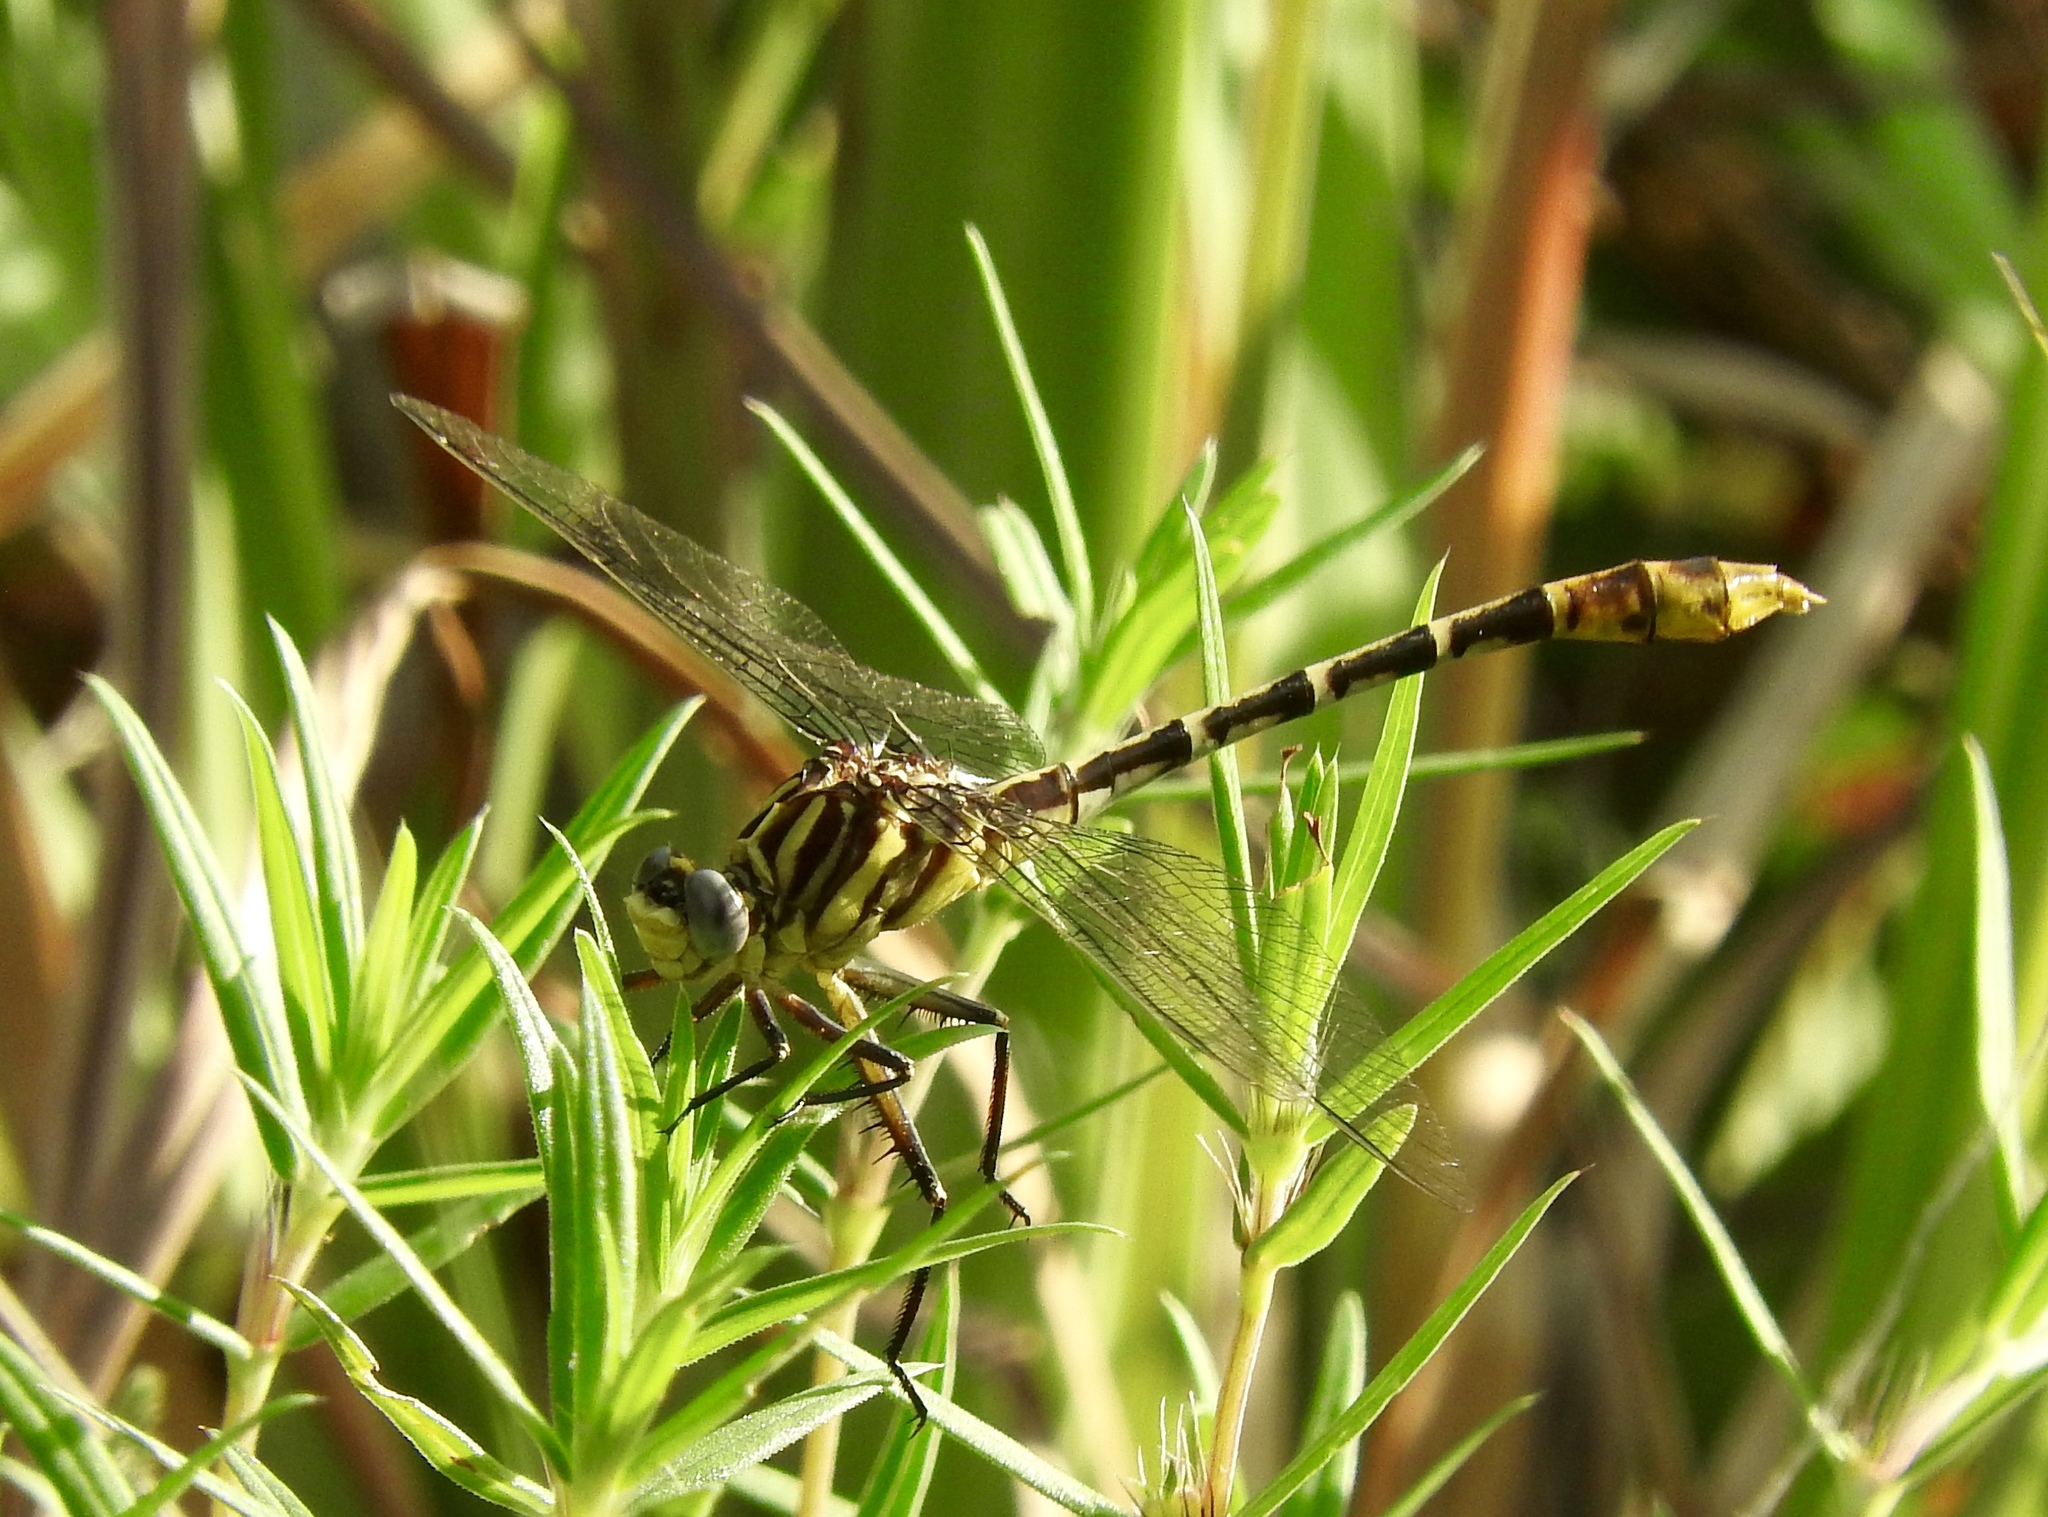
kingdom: Animalia
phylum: Arthropoda
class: Insecta
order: Odonata
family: Gomphidae
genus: Dromogomphus
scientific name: Dromogomphus spoliatus
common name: Flag-tailed spinyleg
